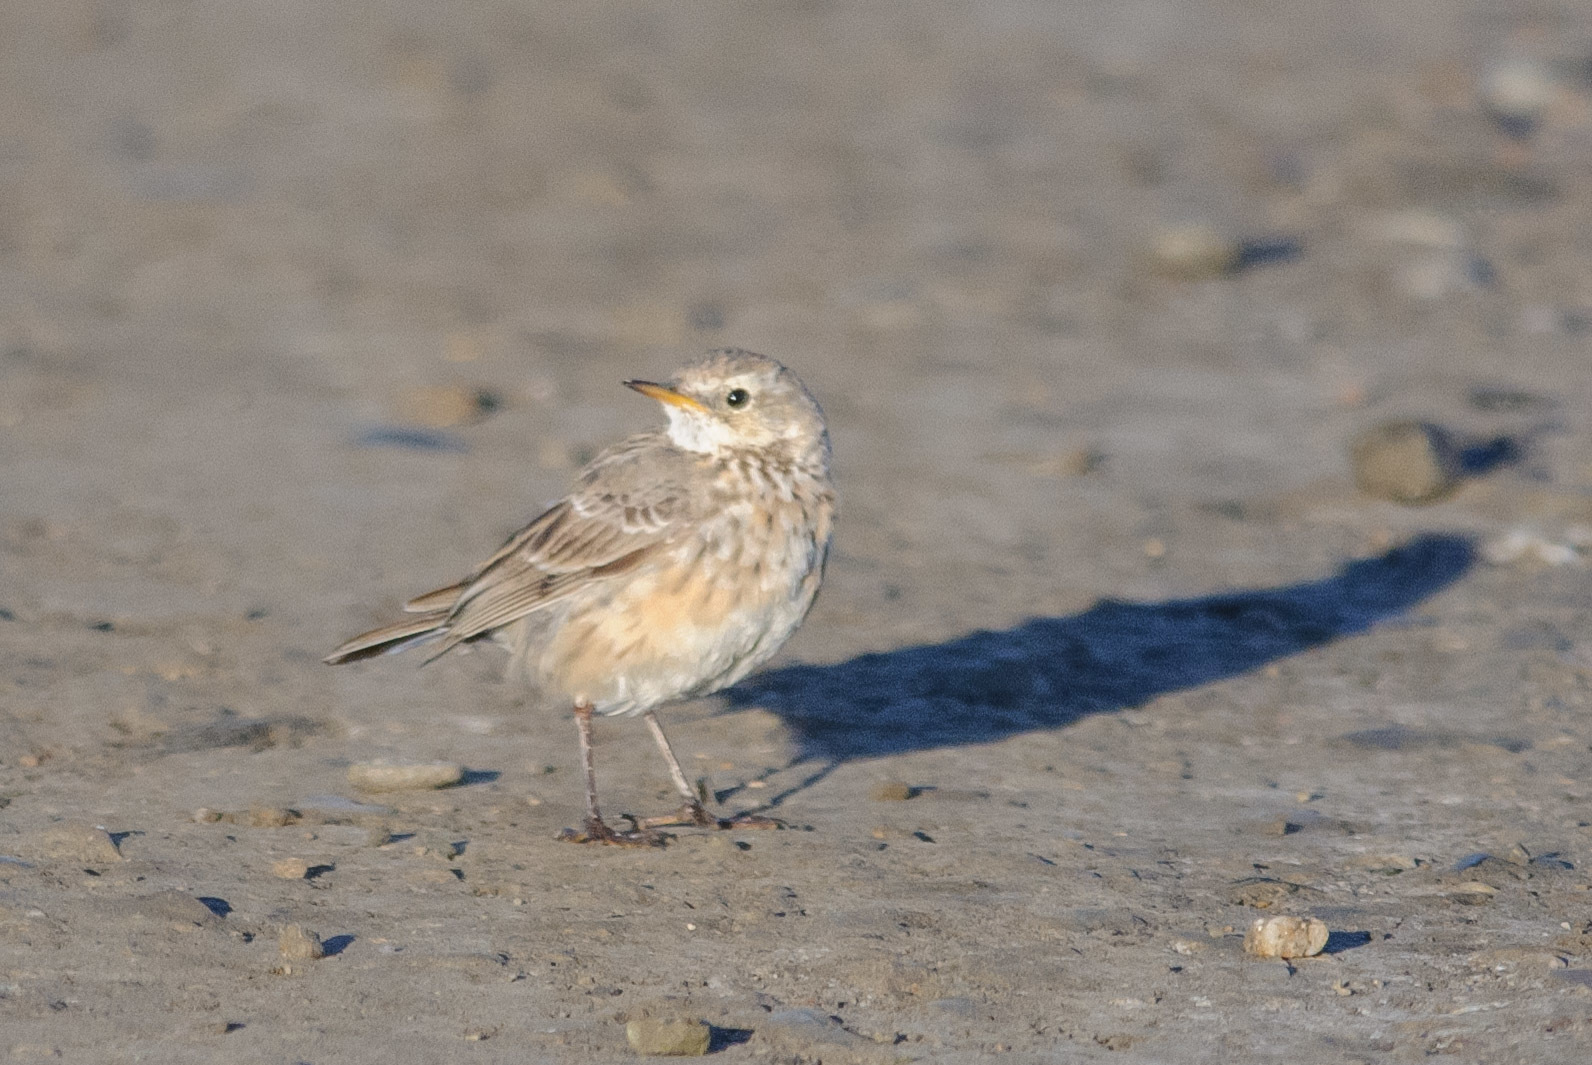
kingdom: Animalia
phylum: Chordata
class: Aves
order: Passeriformes
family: Motacillidae
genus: Anthus
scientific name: Anthus rubescens
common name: Buff-bellied pipit
